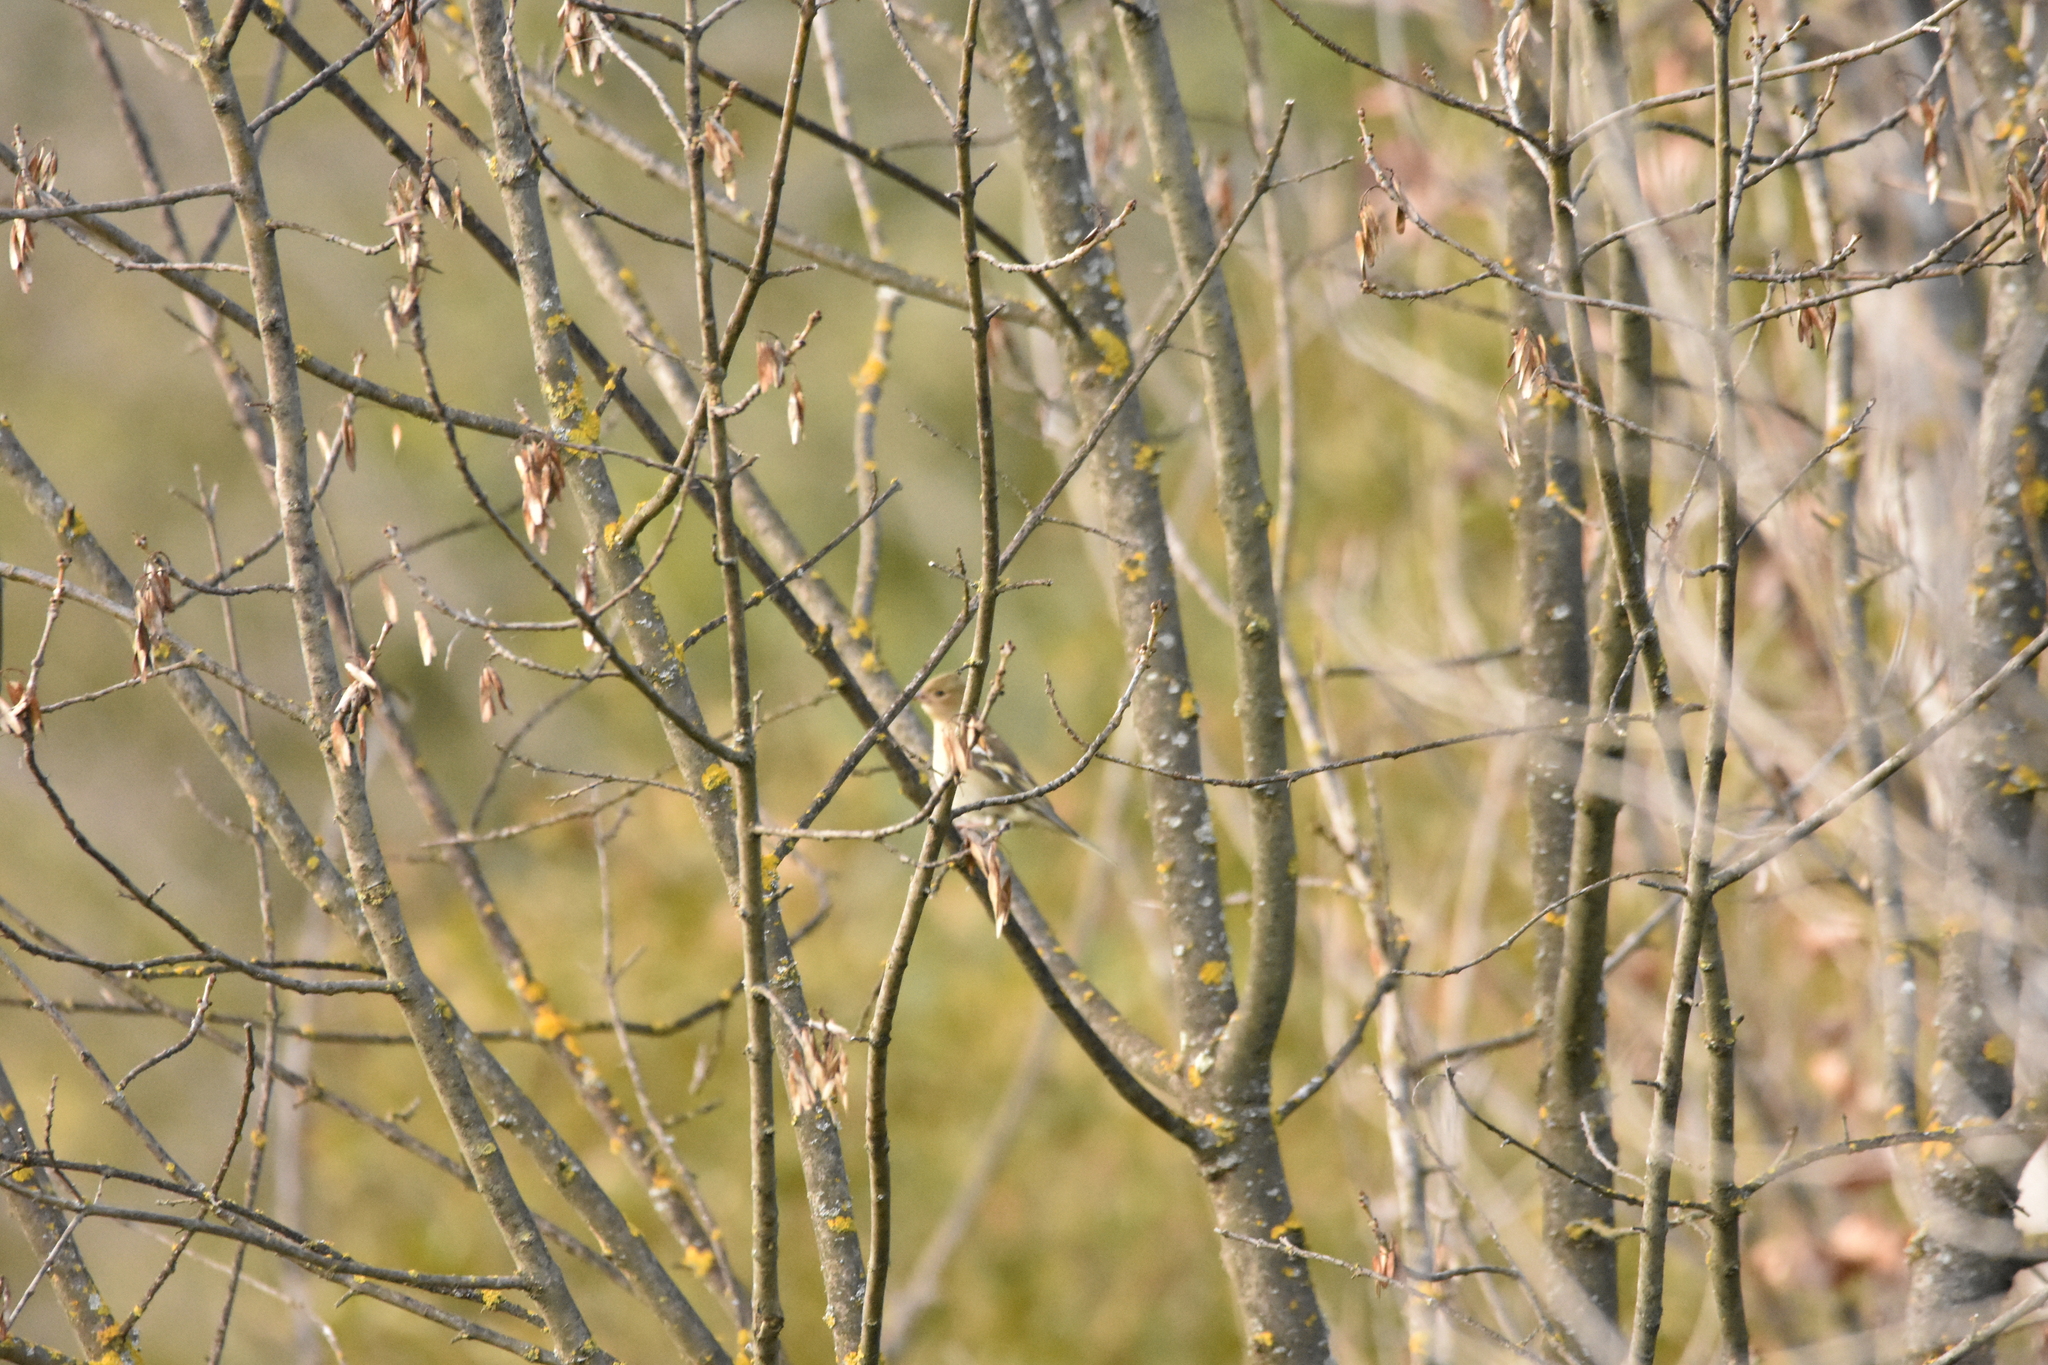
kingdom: Animalia
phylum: Chordata
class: Aves
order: Passeriformes
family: Fringillidae
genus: Fringilla
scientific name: Fringilla coelebs
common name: Common chaffinch
